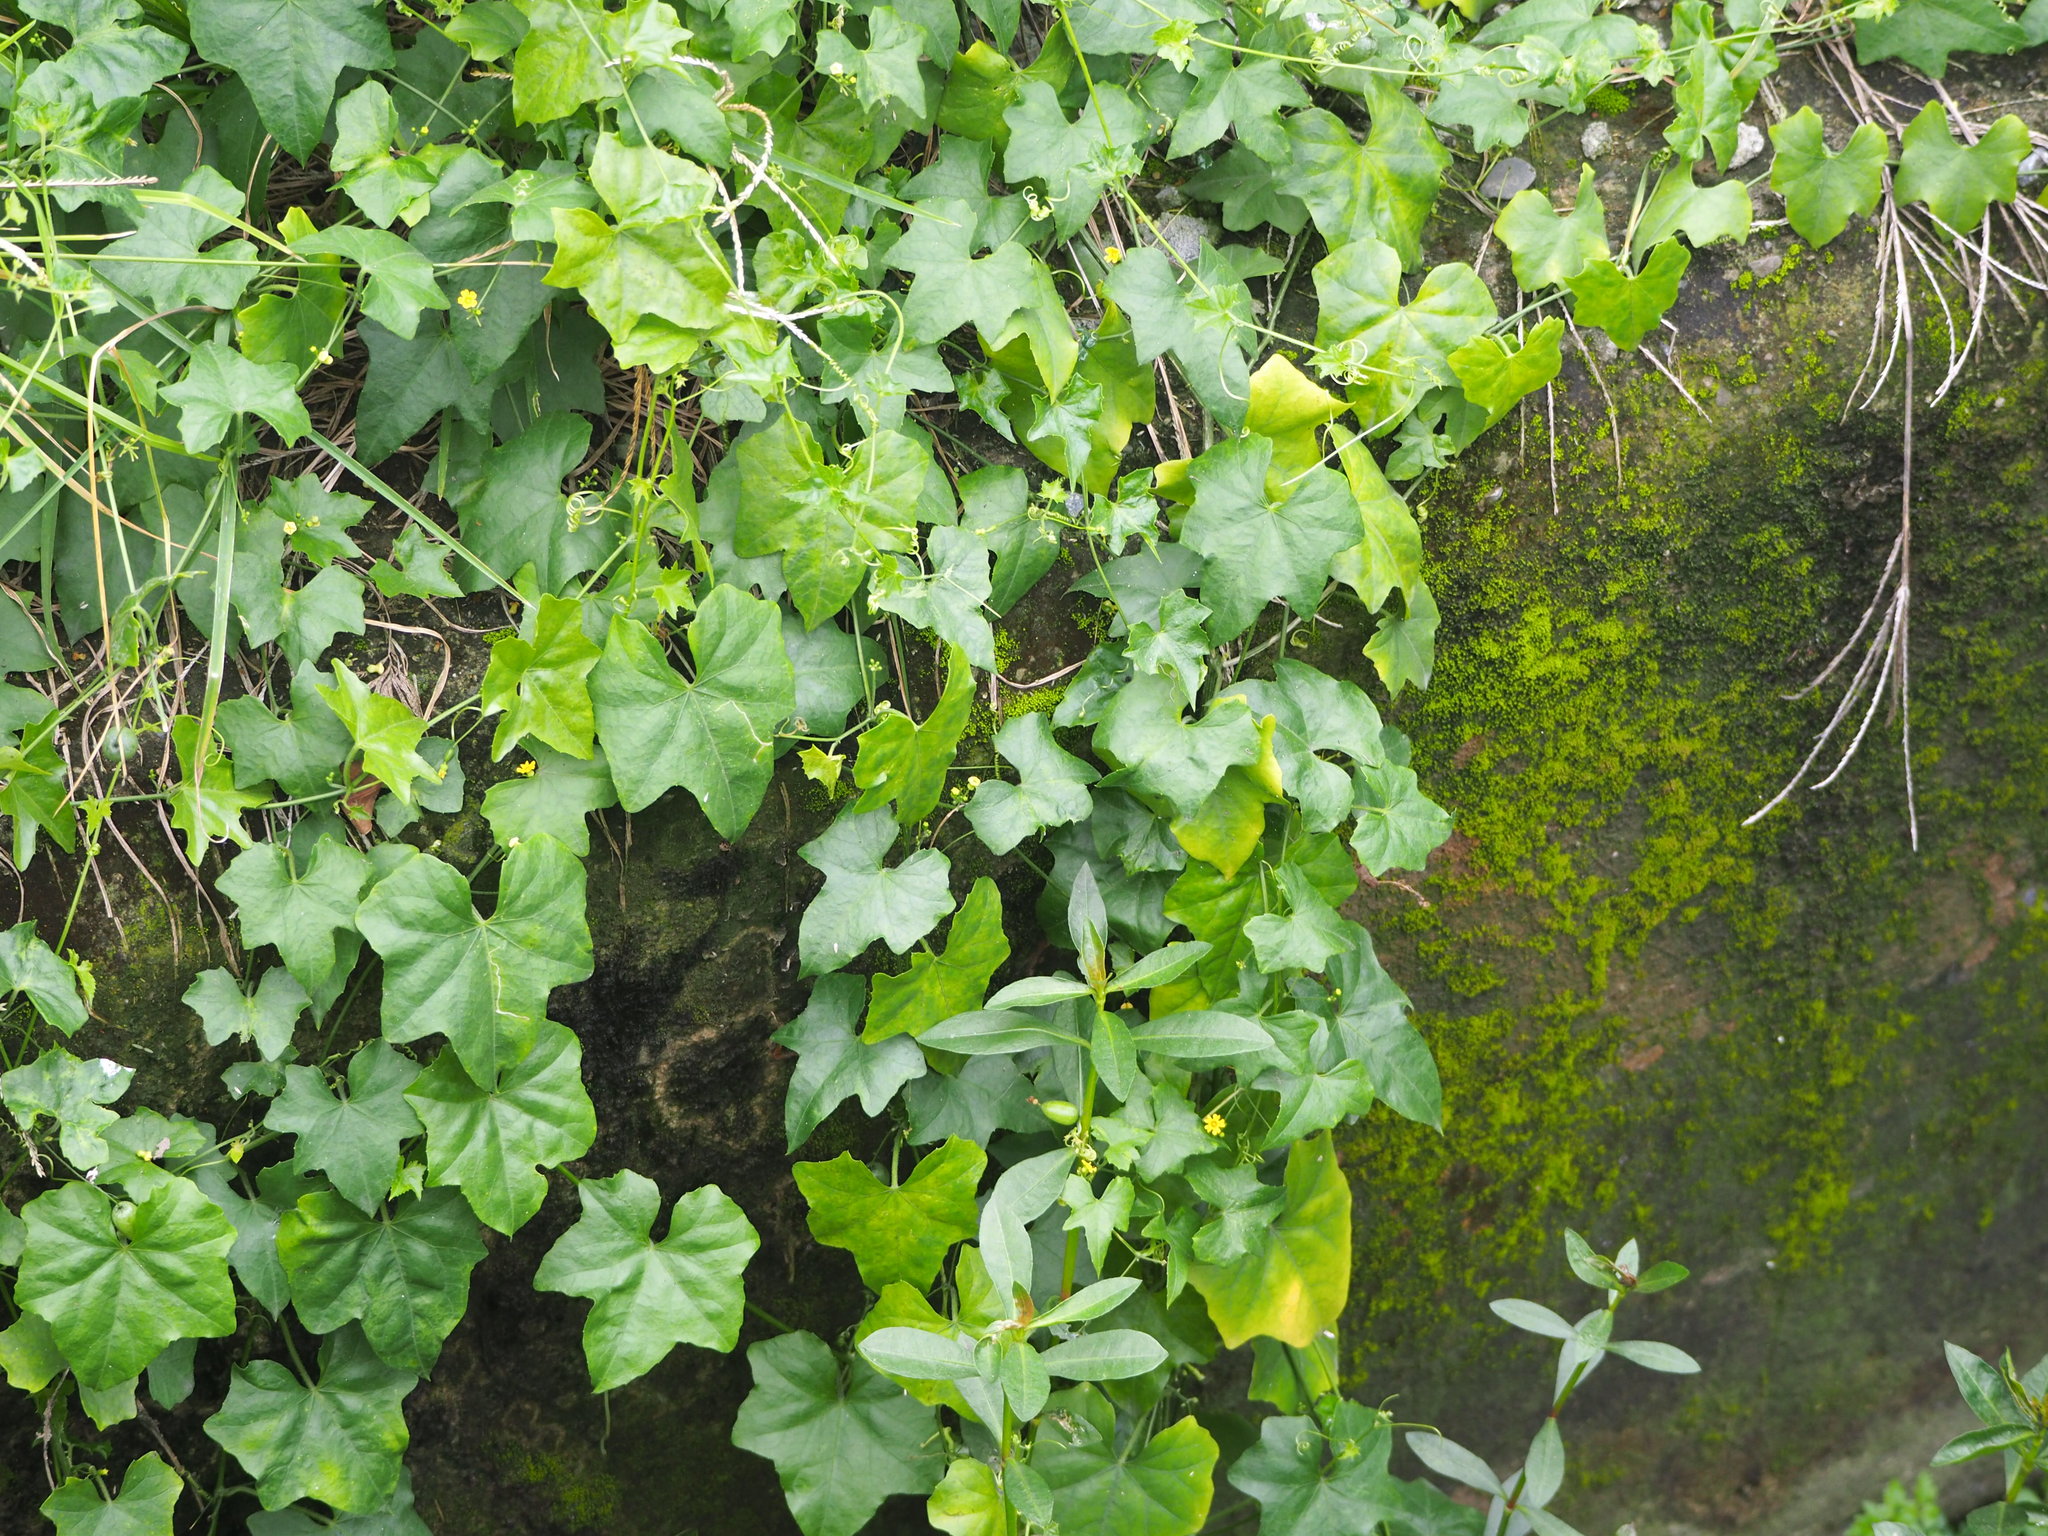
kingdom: Plantae
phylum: Tracheophyta
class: Magnoliopsida
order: Cucurbitales
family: Cucurbitaceae
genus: Melothria
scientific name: Melothria pendula
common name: Creeping-cucumber
